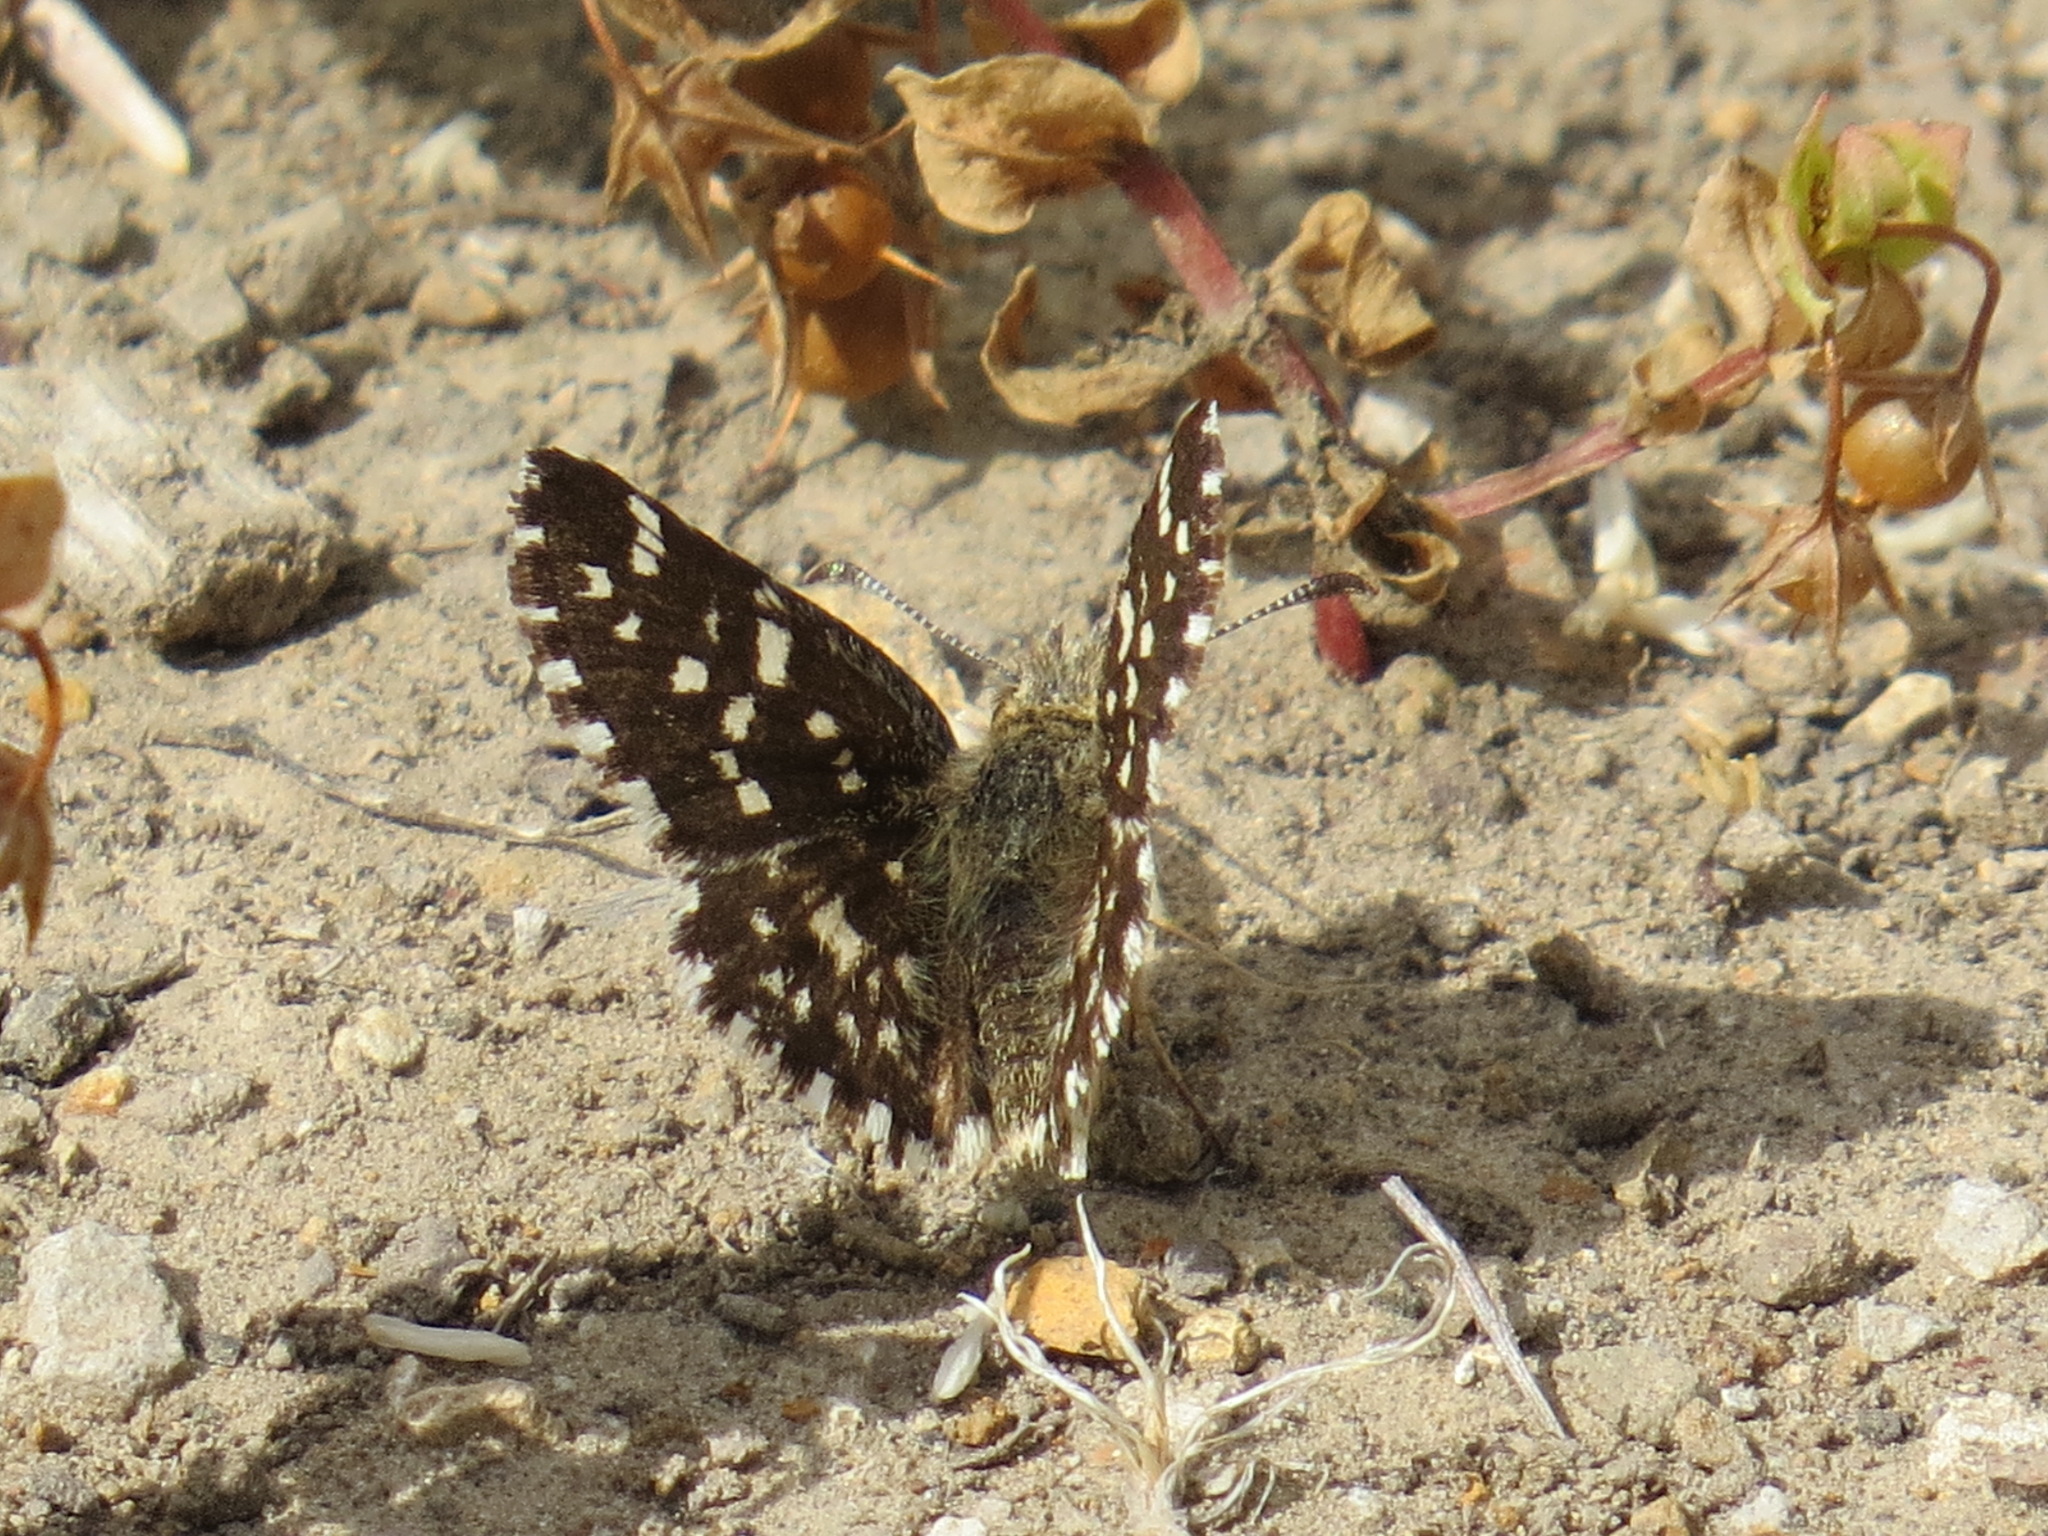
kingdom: Animalia
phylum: Arthropoda
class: Insecta
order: Lepidoptera
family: Hesperiidae
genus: Pyrgus
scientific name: Pyrgus ruralis
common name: Two-banded checkered-skipper
